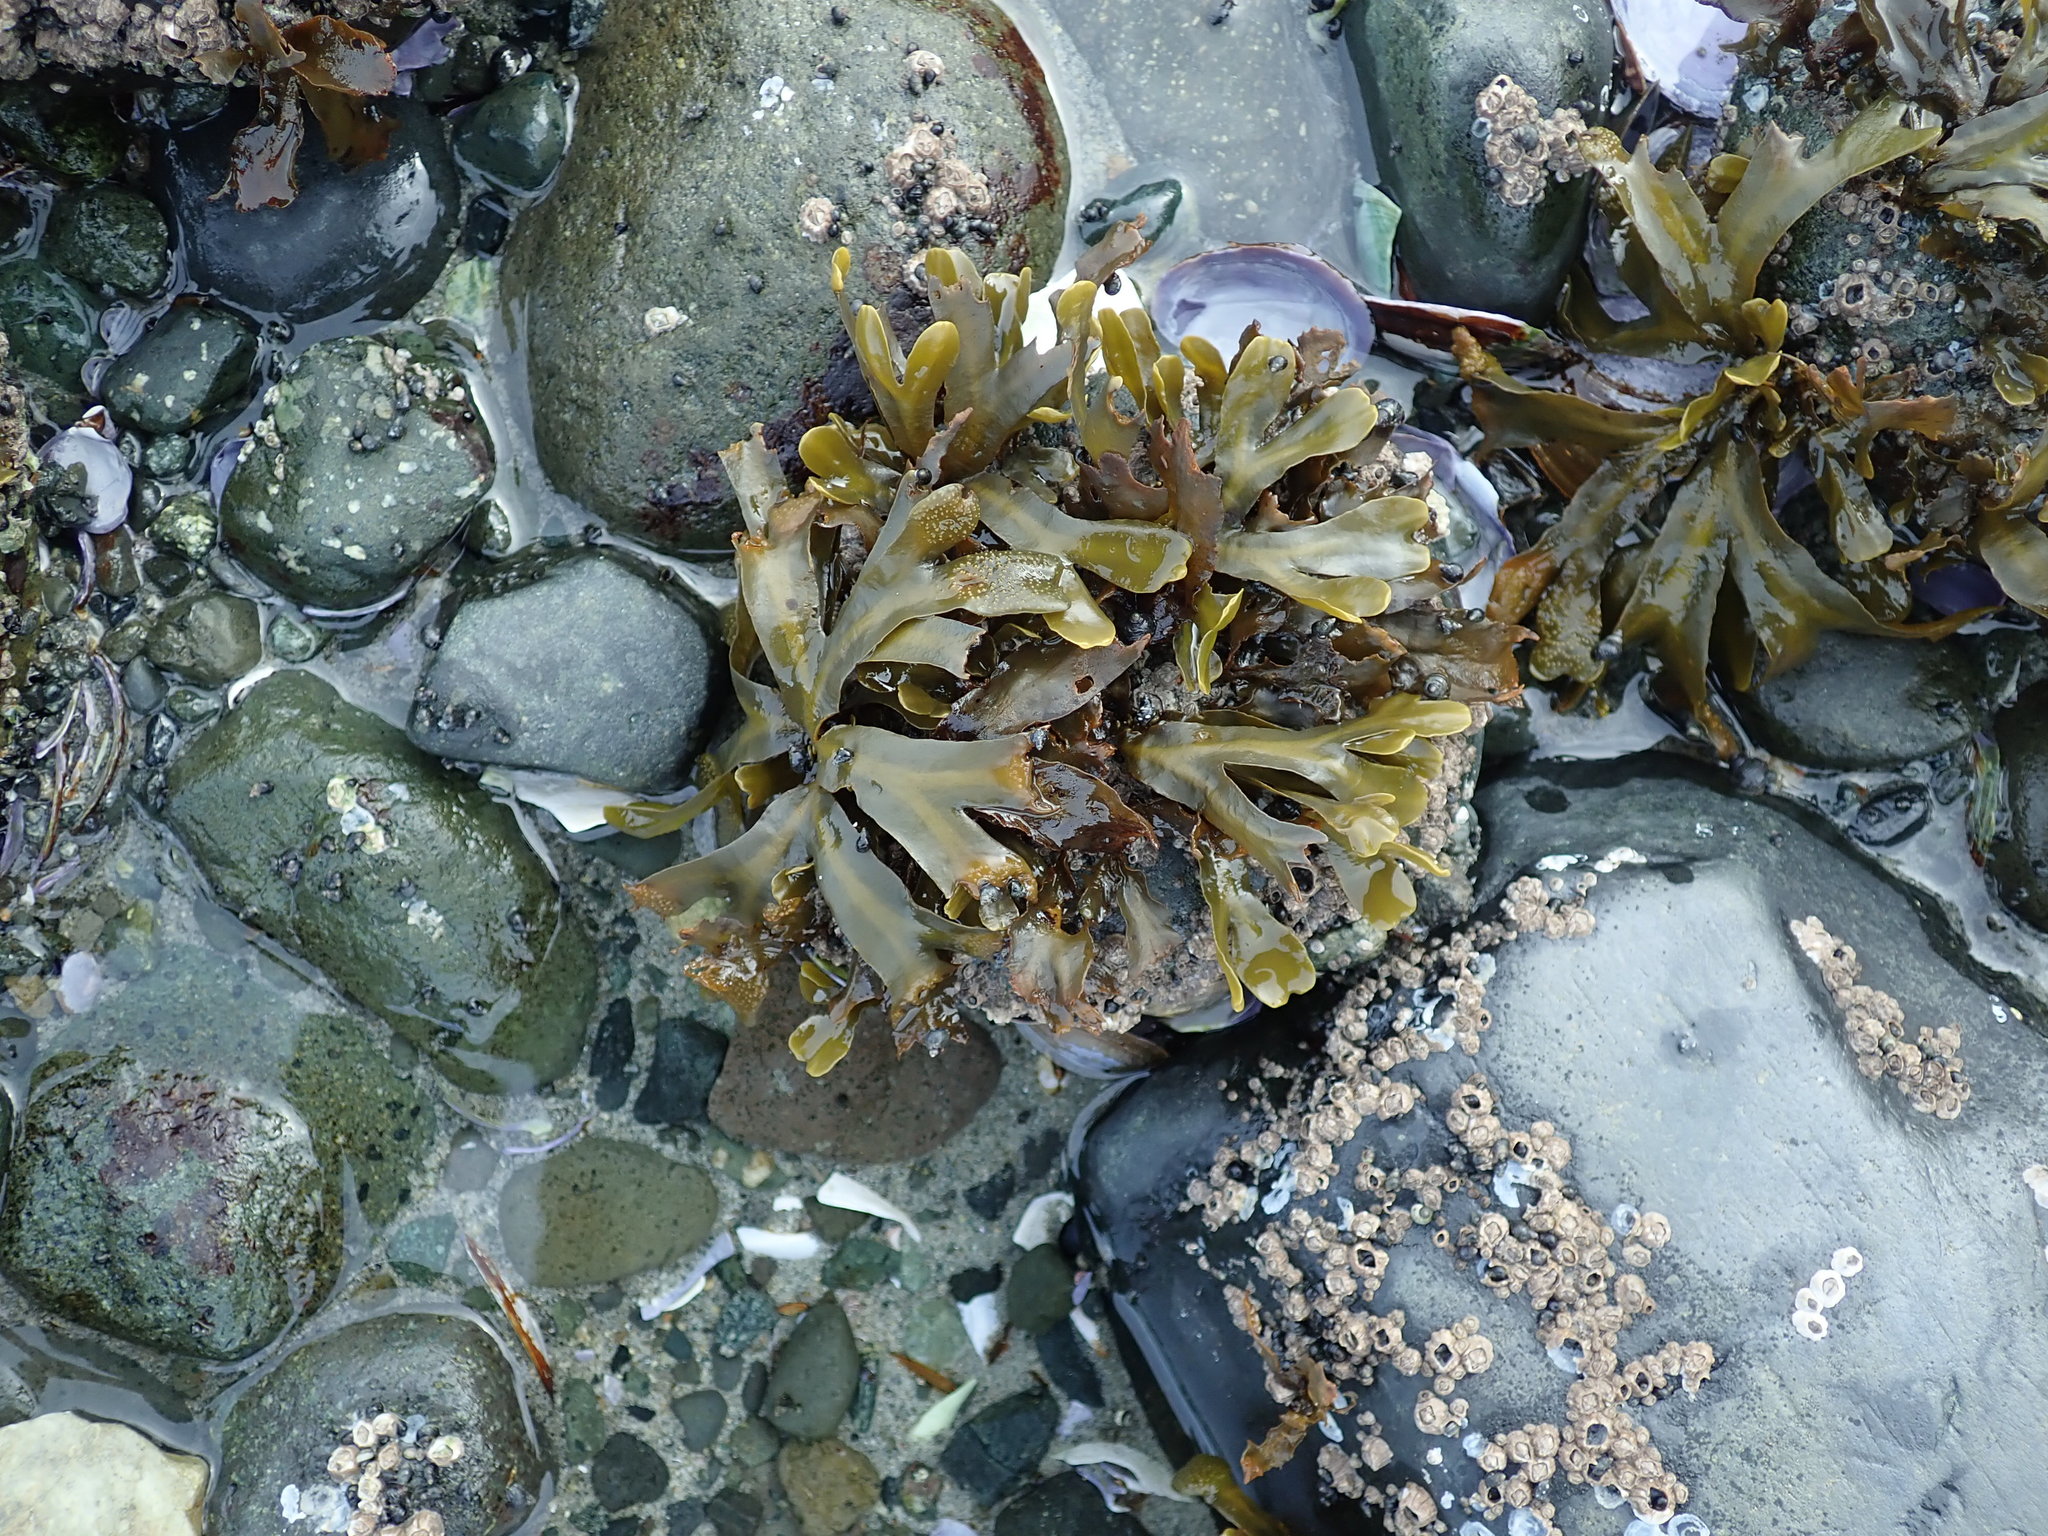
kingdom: Chromista
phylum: Ochrophyta
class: Phaeophyceae
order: Fucales
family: Fucaceae
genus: Fucus
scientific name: Fucus distichus
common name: Rockweed
